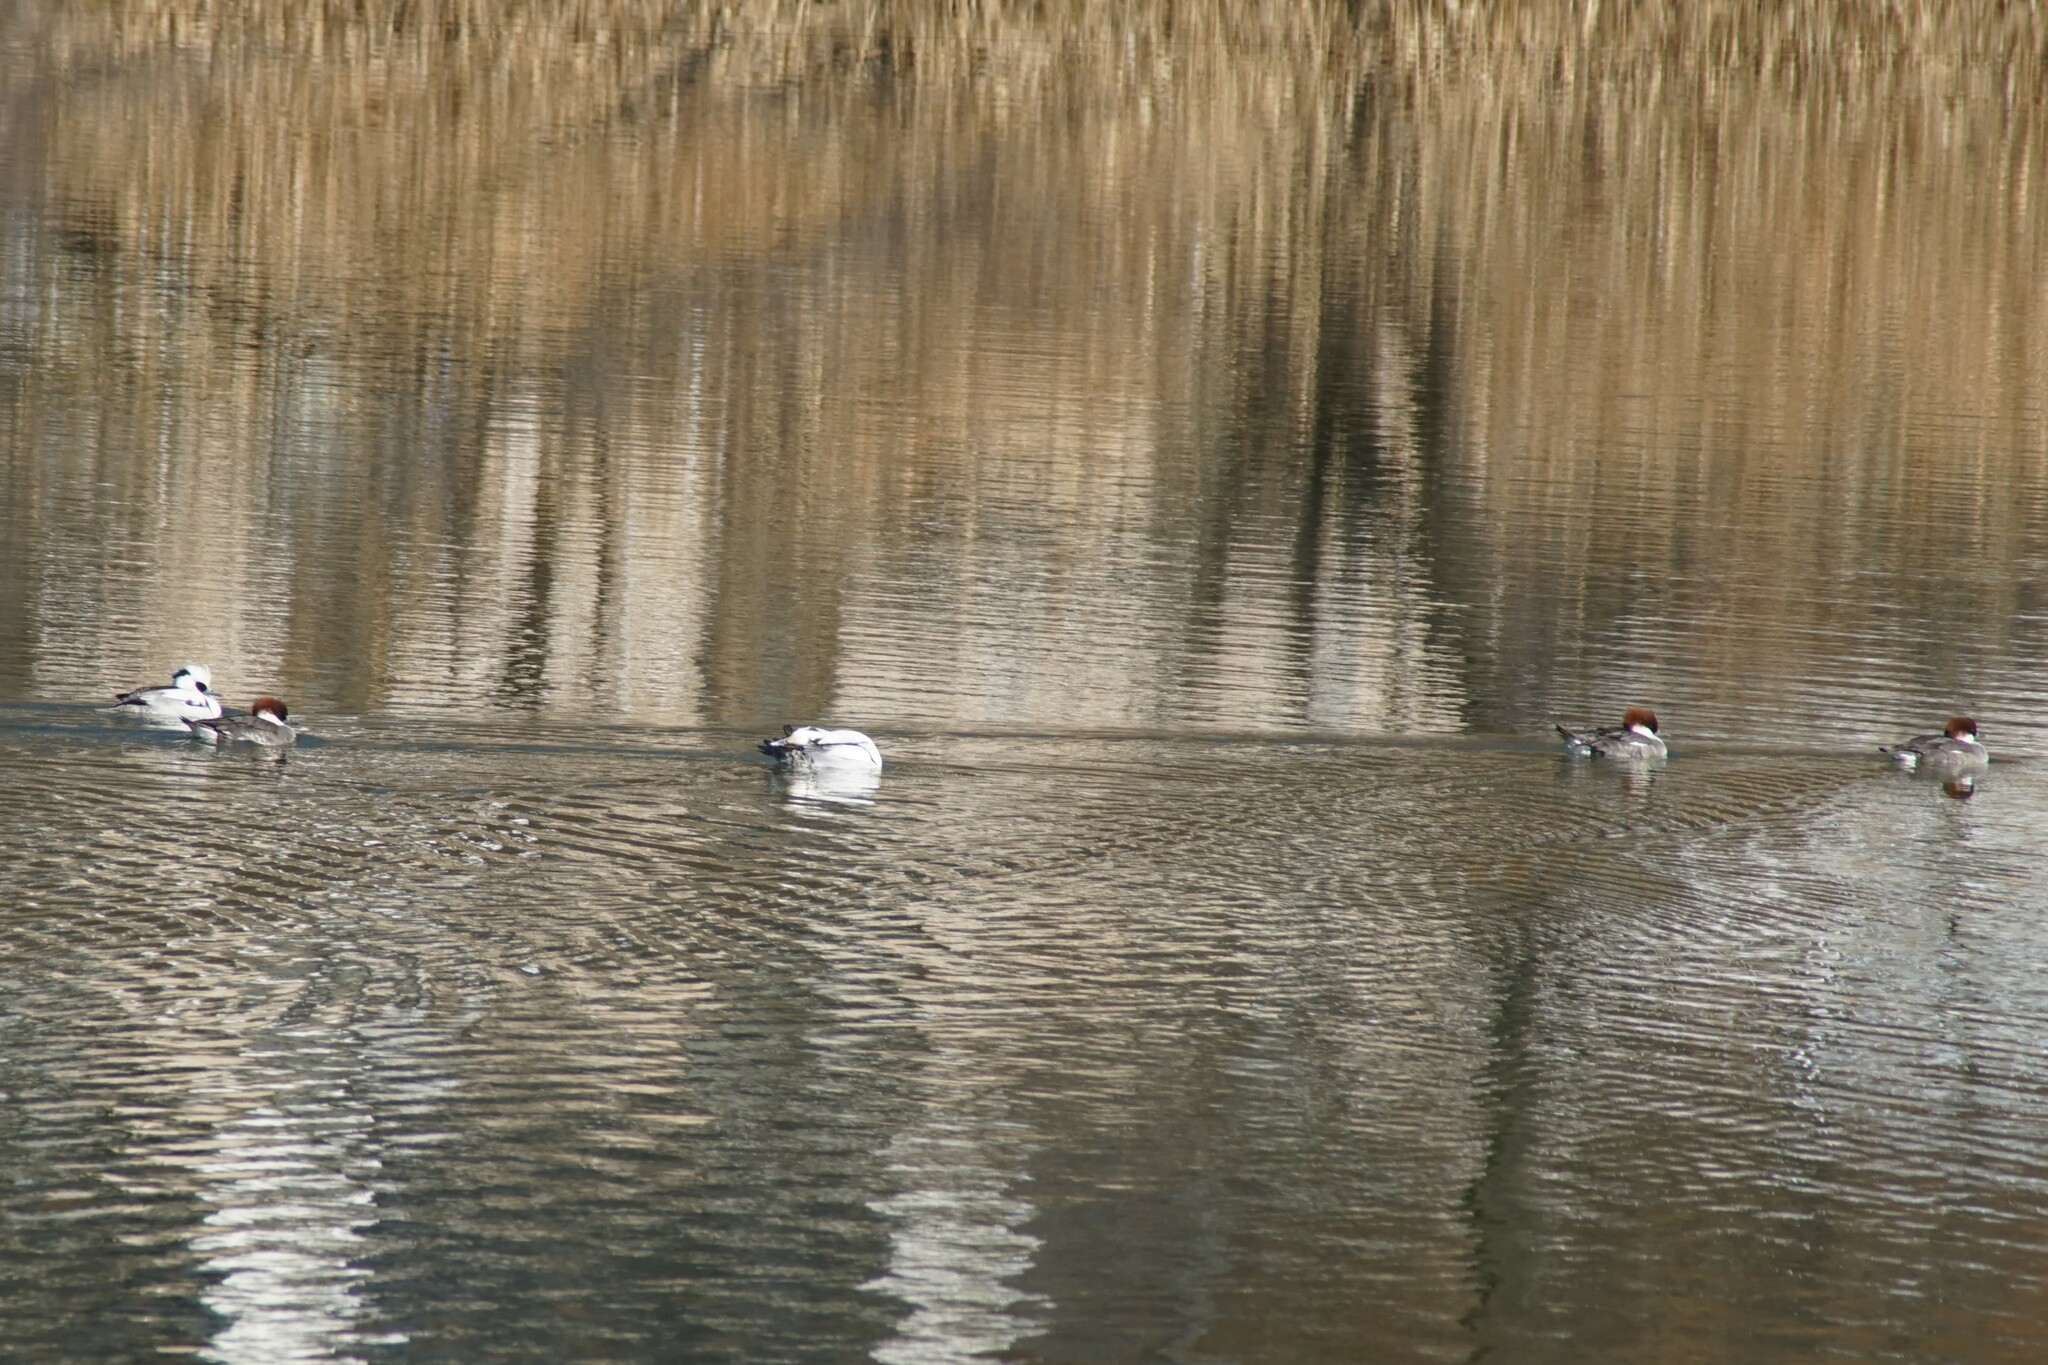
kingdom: Animalia
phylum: Chordata
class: Aves
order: Anseriformes
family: Anatidae
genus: Mergellus
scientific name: Mergellus albellus
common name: Smew
